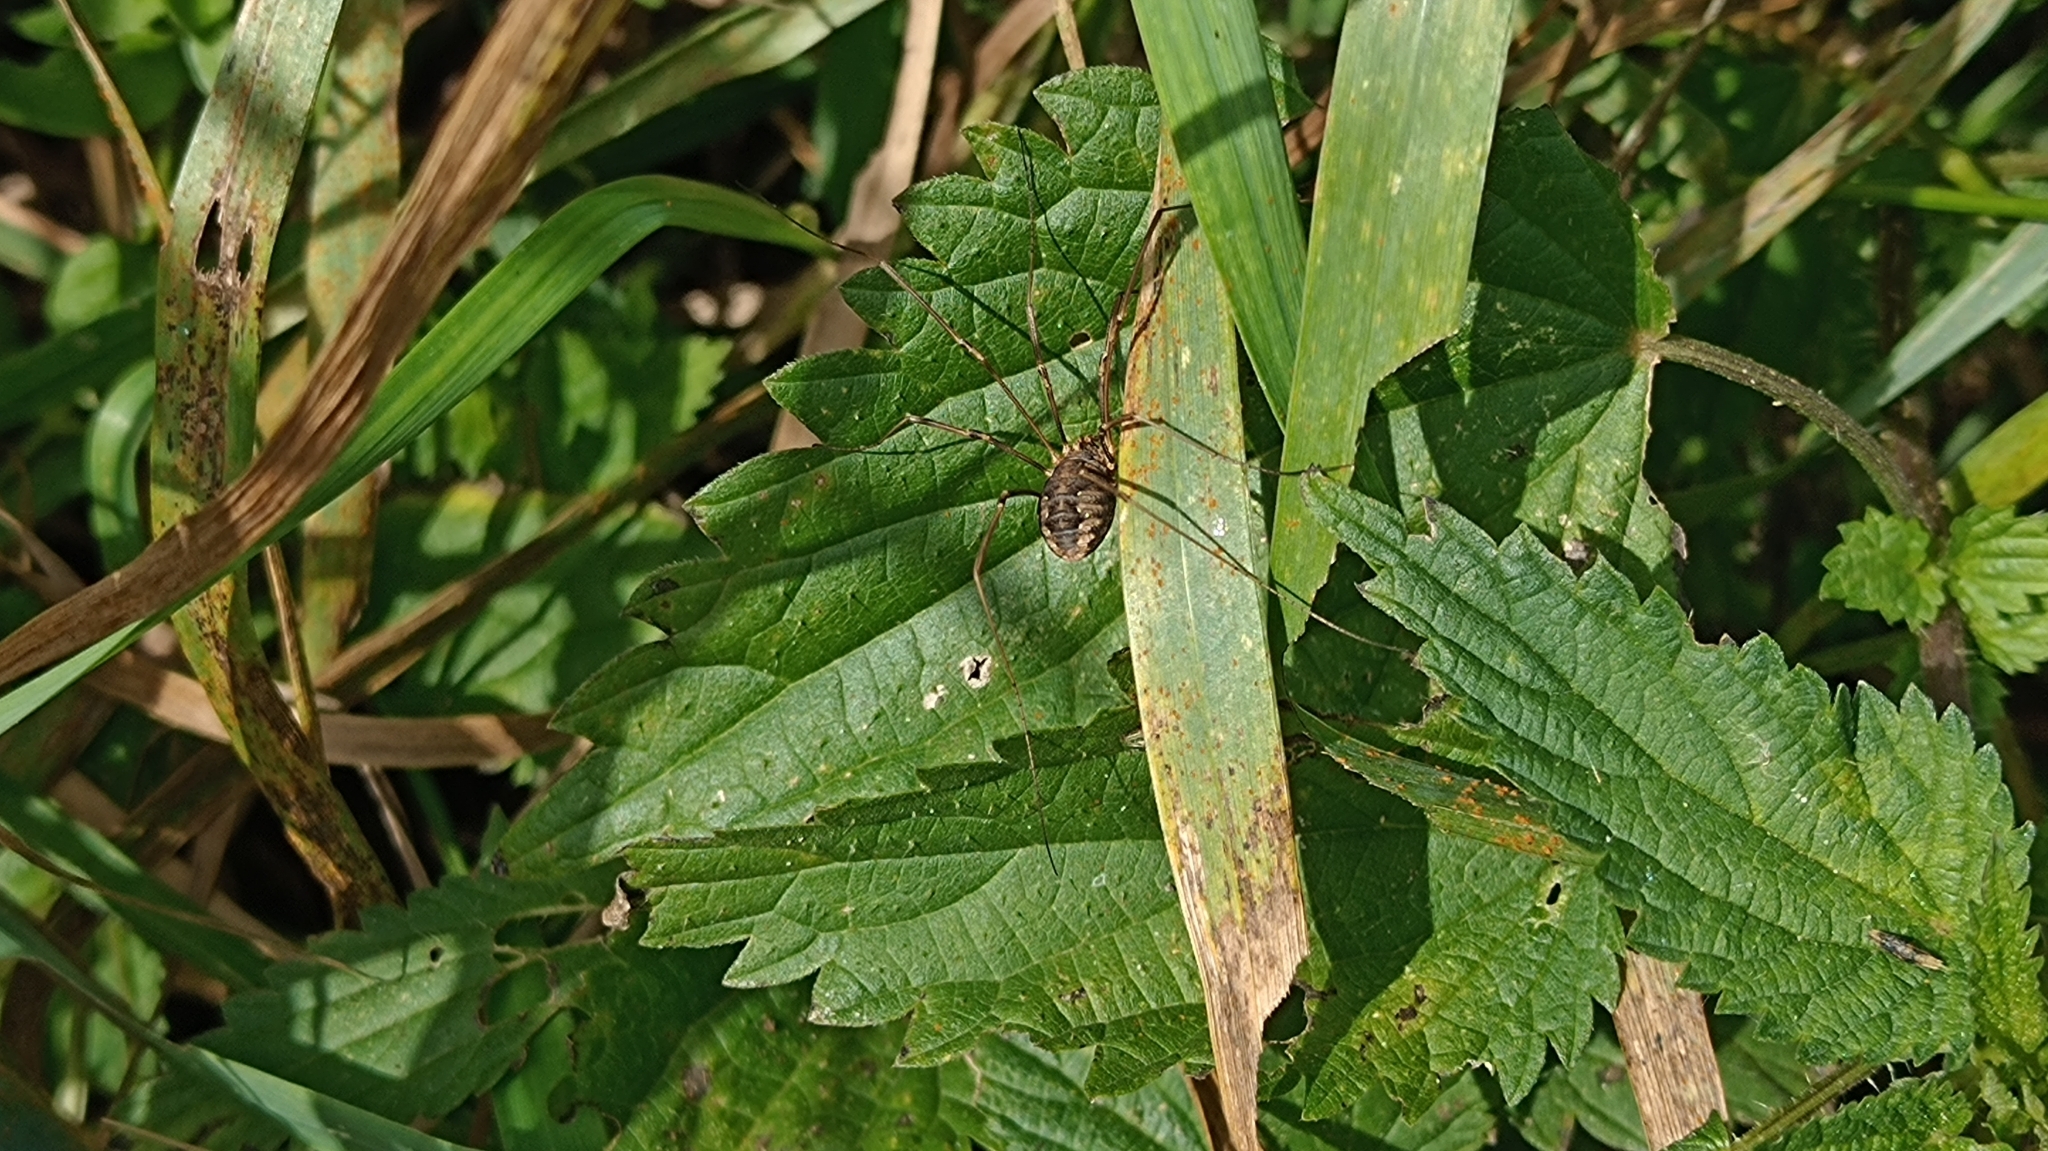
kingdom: Animalia
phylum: Arthropoda
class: Arachnida
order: Opiliones
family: Phalangiidae
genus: Phalangium
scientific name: Phalangium opilio
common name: Daddy longleg
